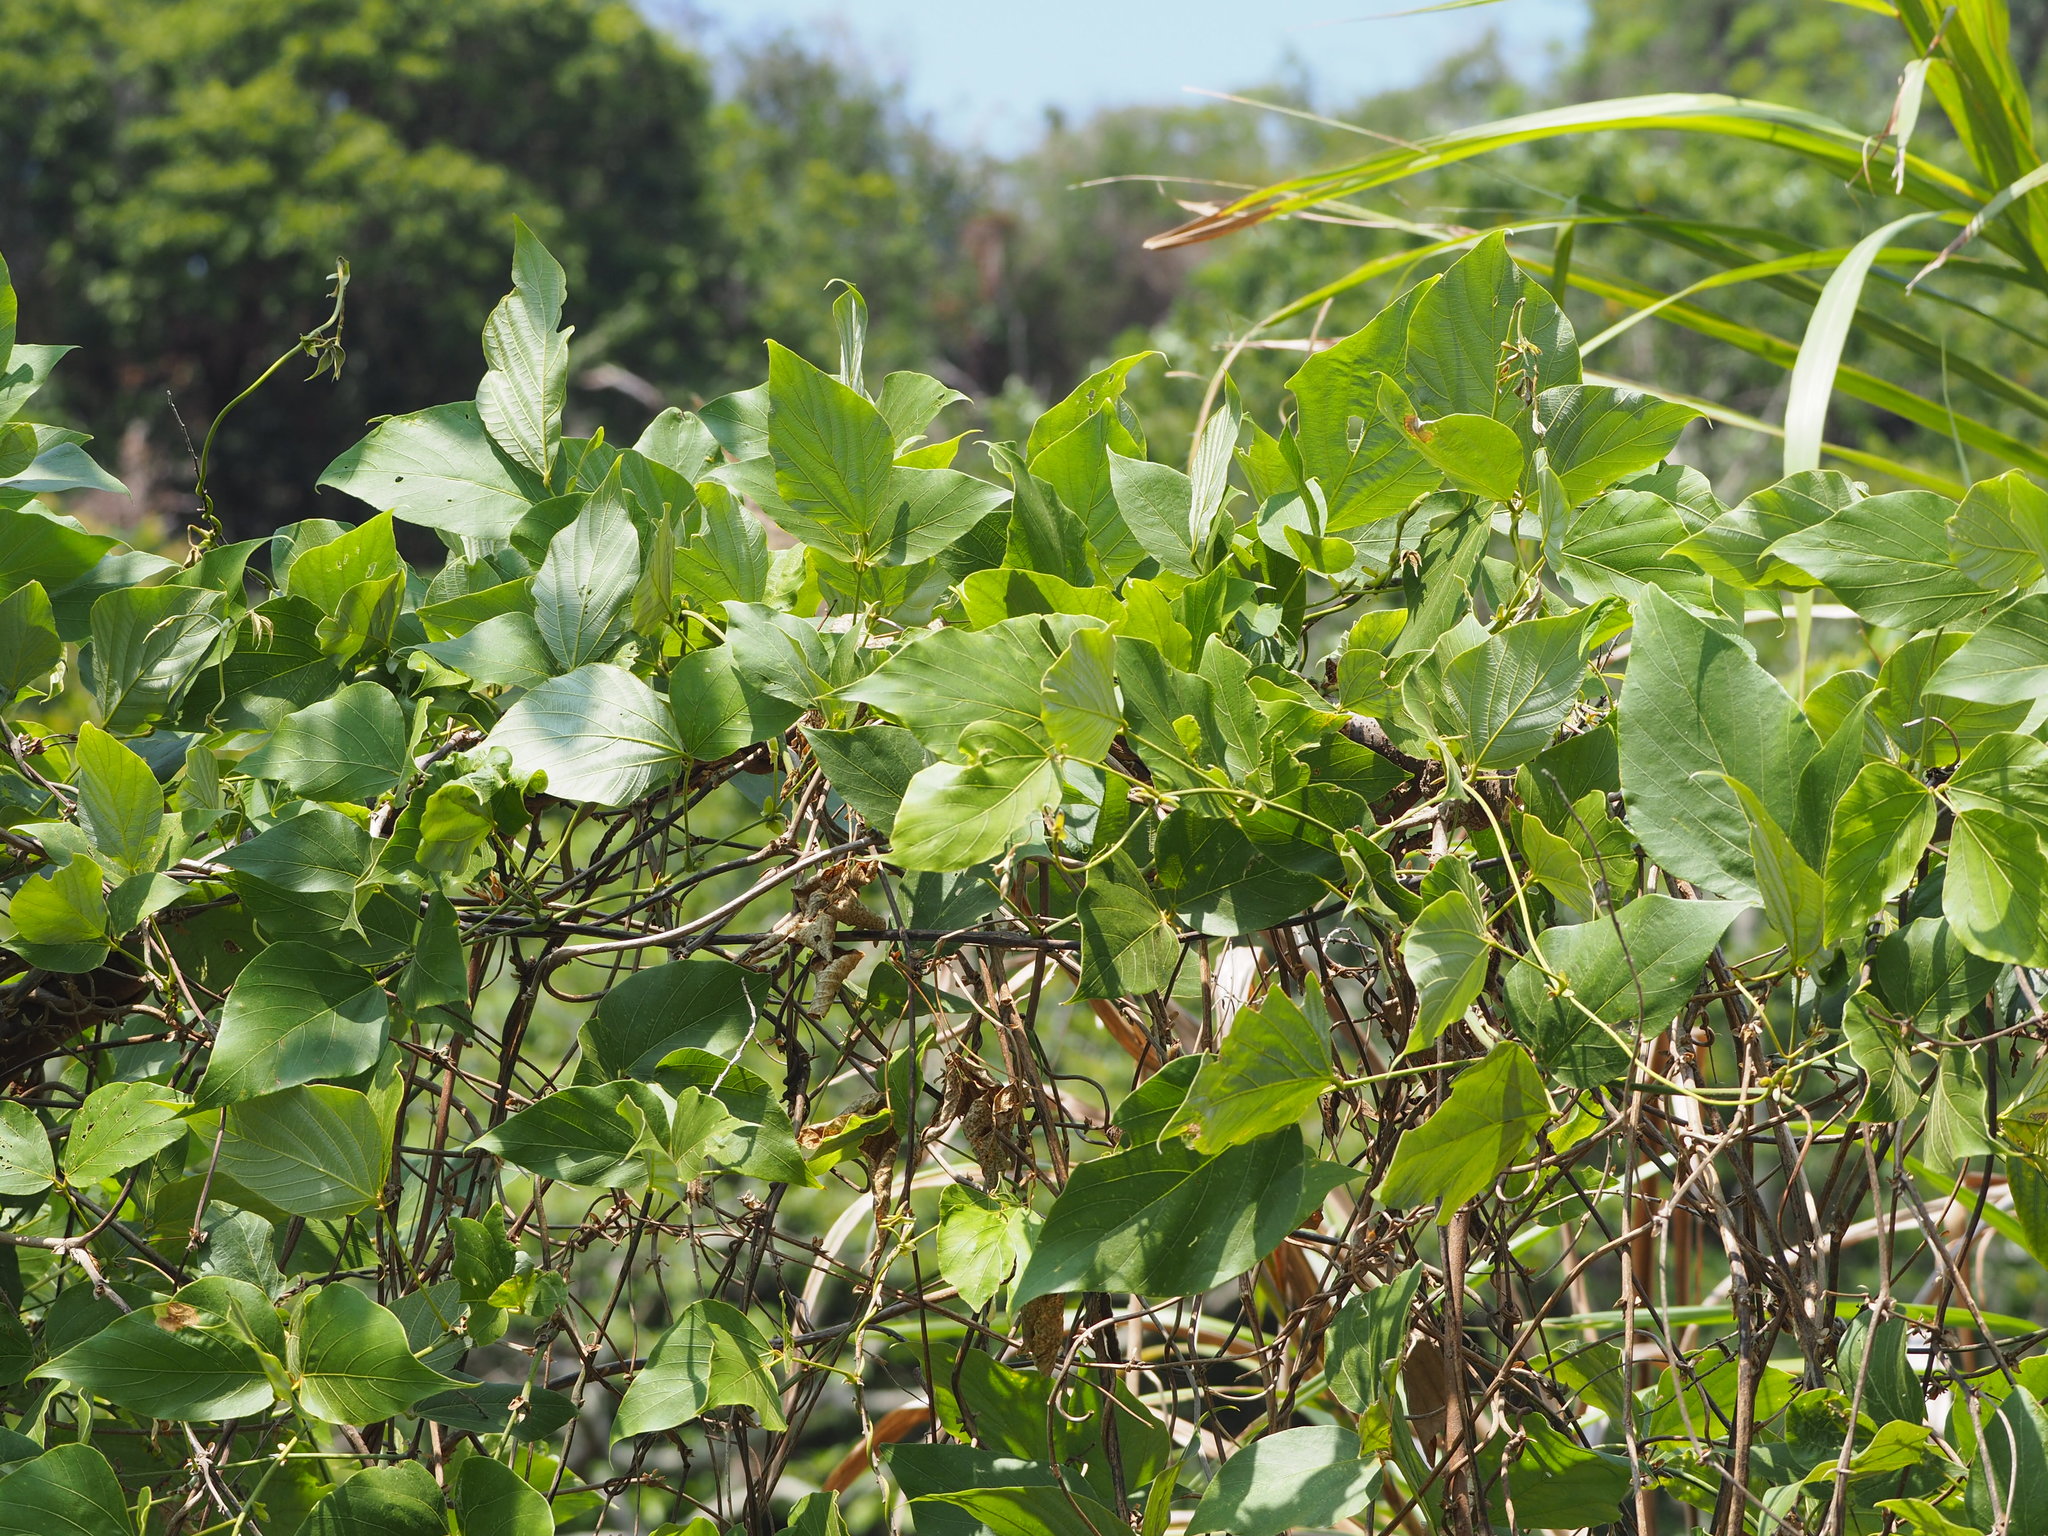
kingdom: Plantae
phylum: Tracheophyta
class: Magnoliopsida
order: Fabales
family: Fabaceae
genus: Pueraria
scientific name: Pueraria montana
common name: Kudzu
